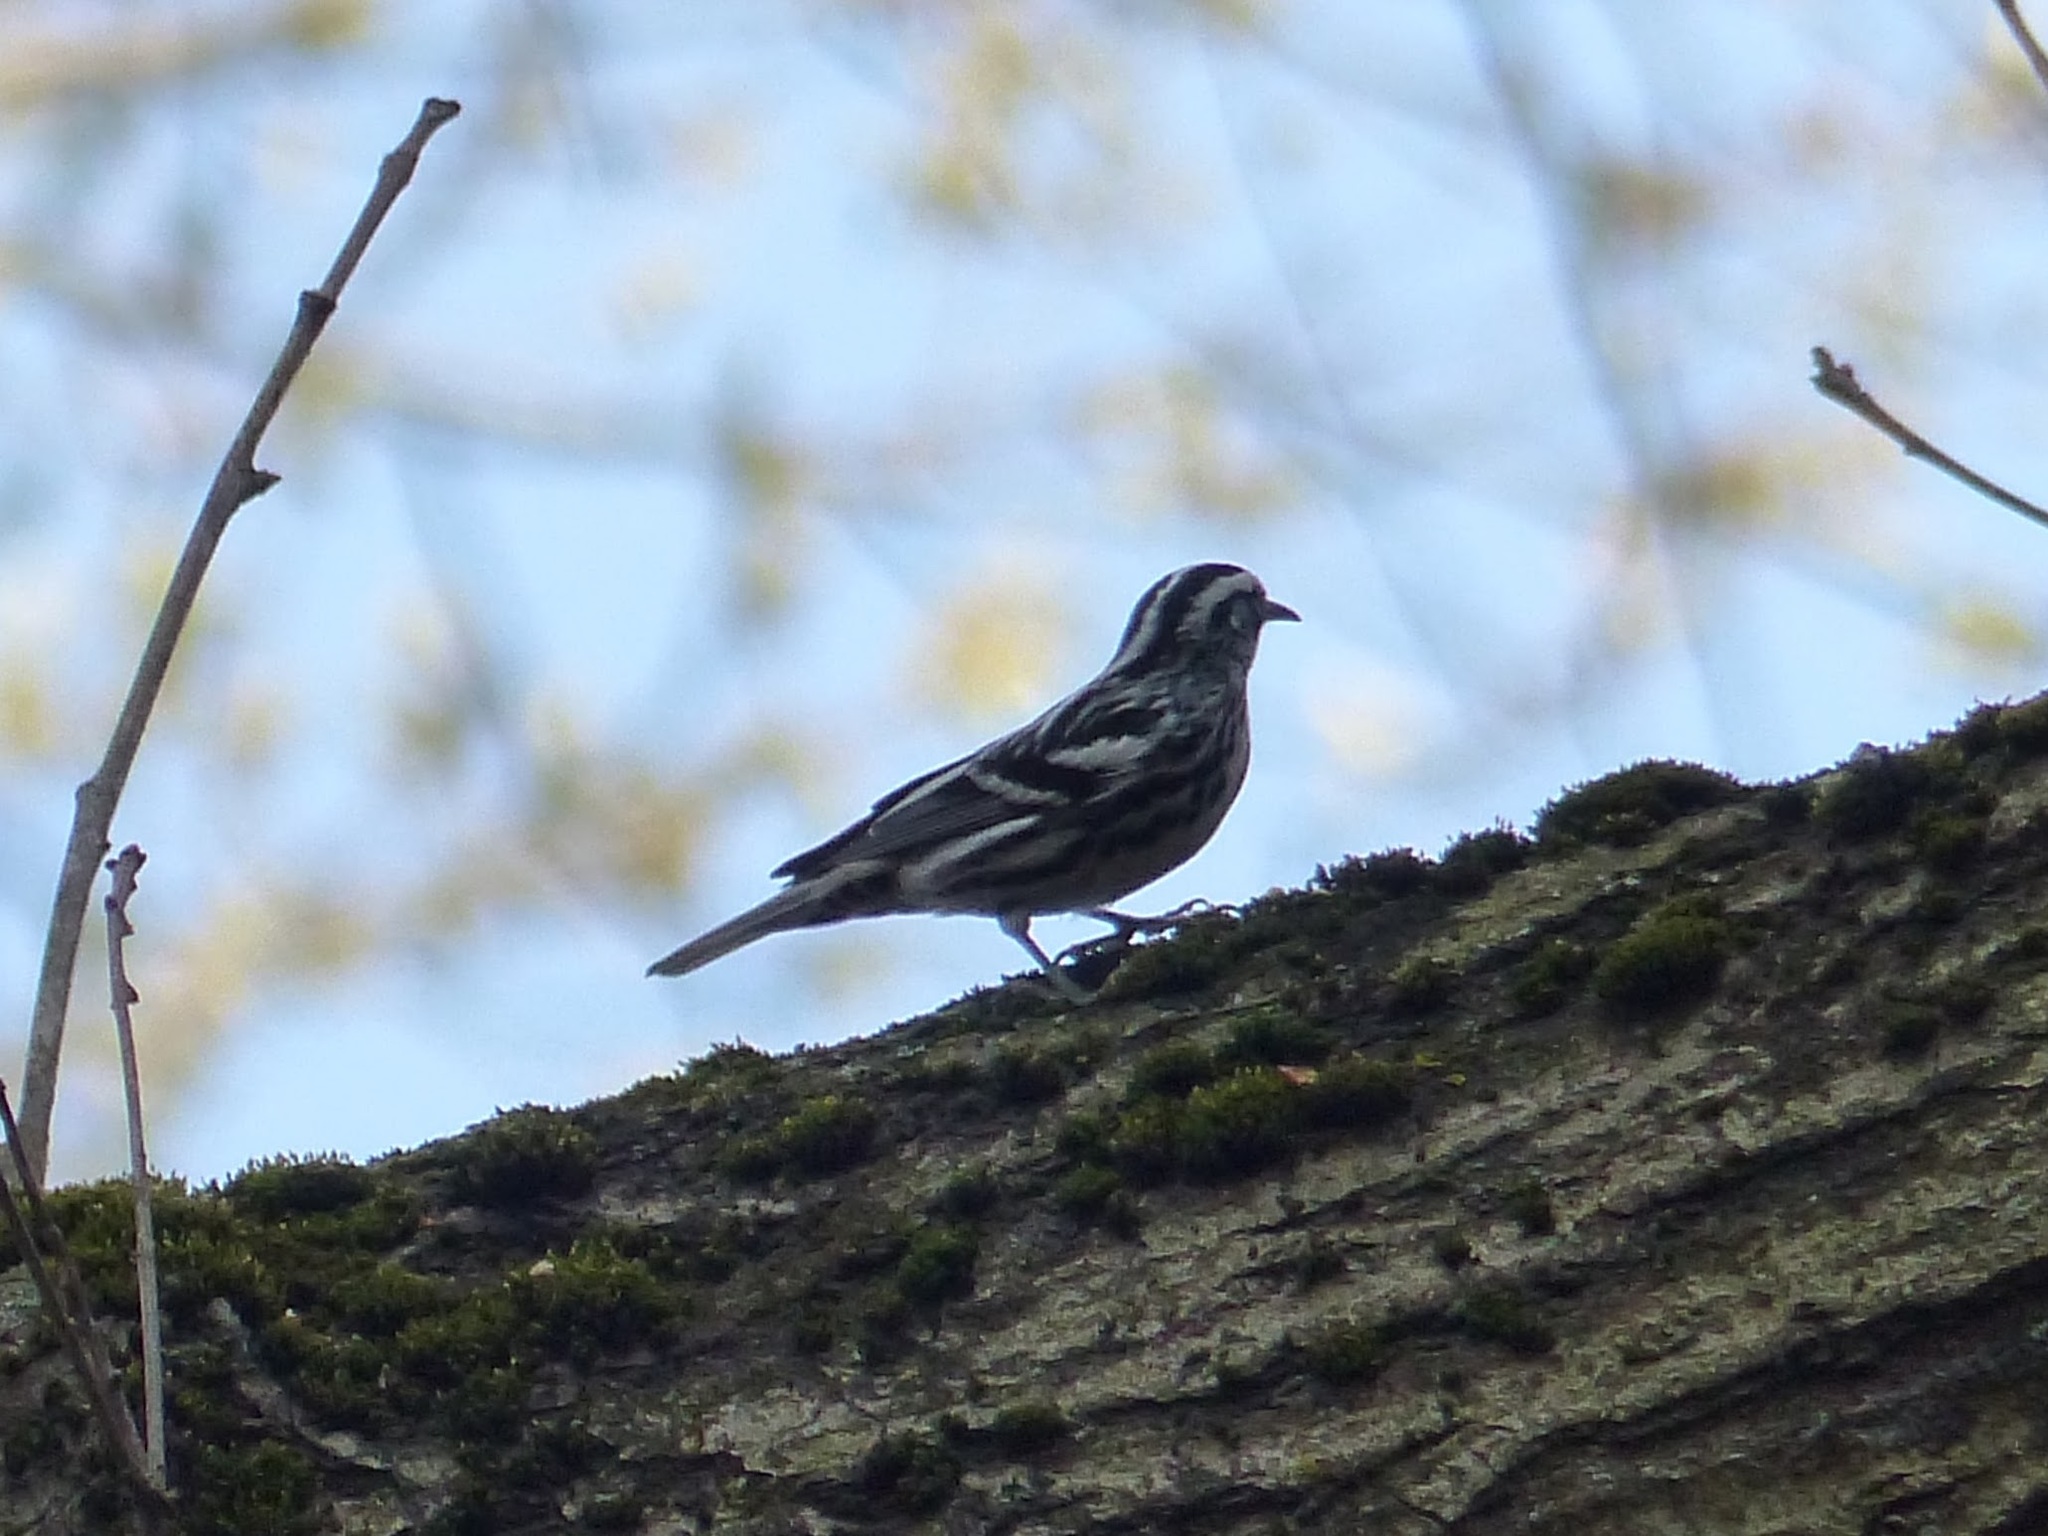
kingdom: Animalia
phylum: Chordata
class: Aves
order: Passeriformes
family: Parulidae
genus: Mniotilta
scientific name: Mniotilta varia
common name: Black-and-white warbler
